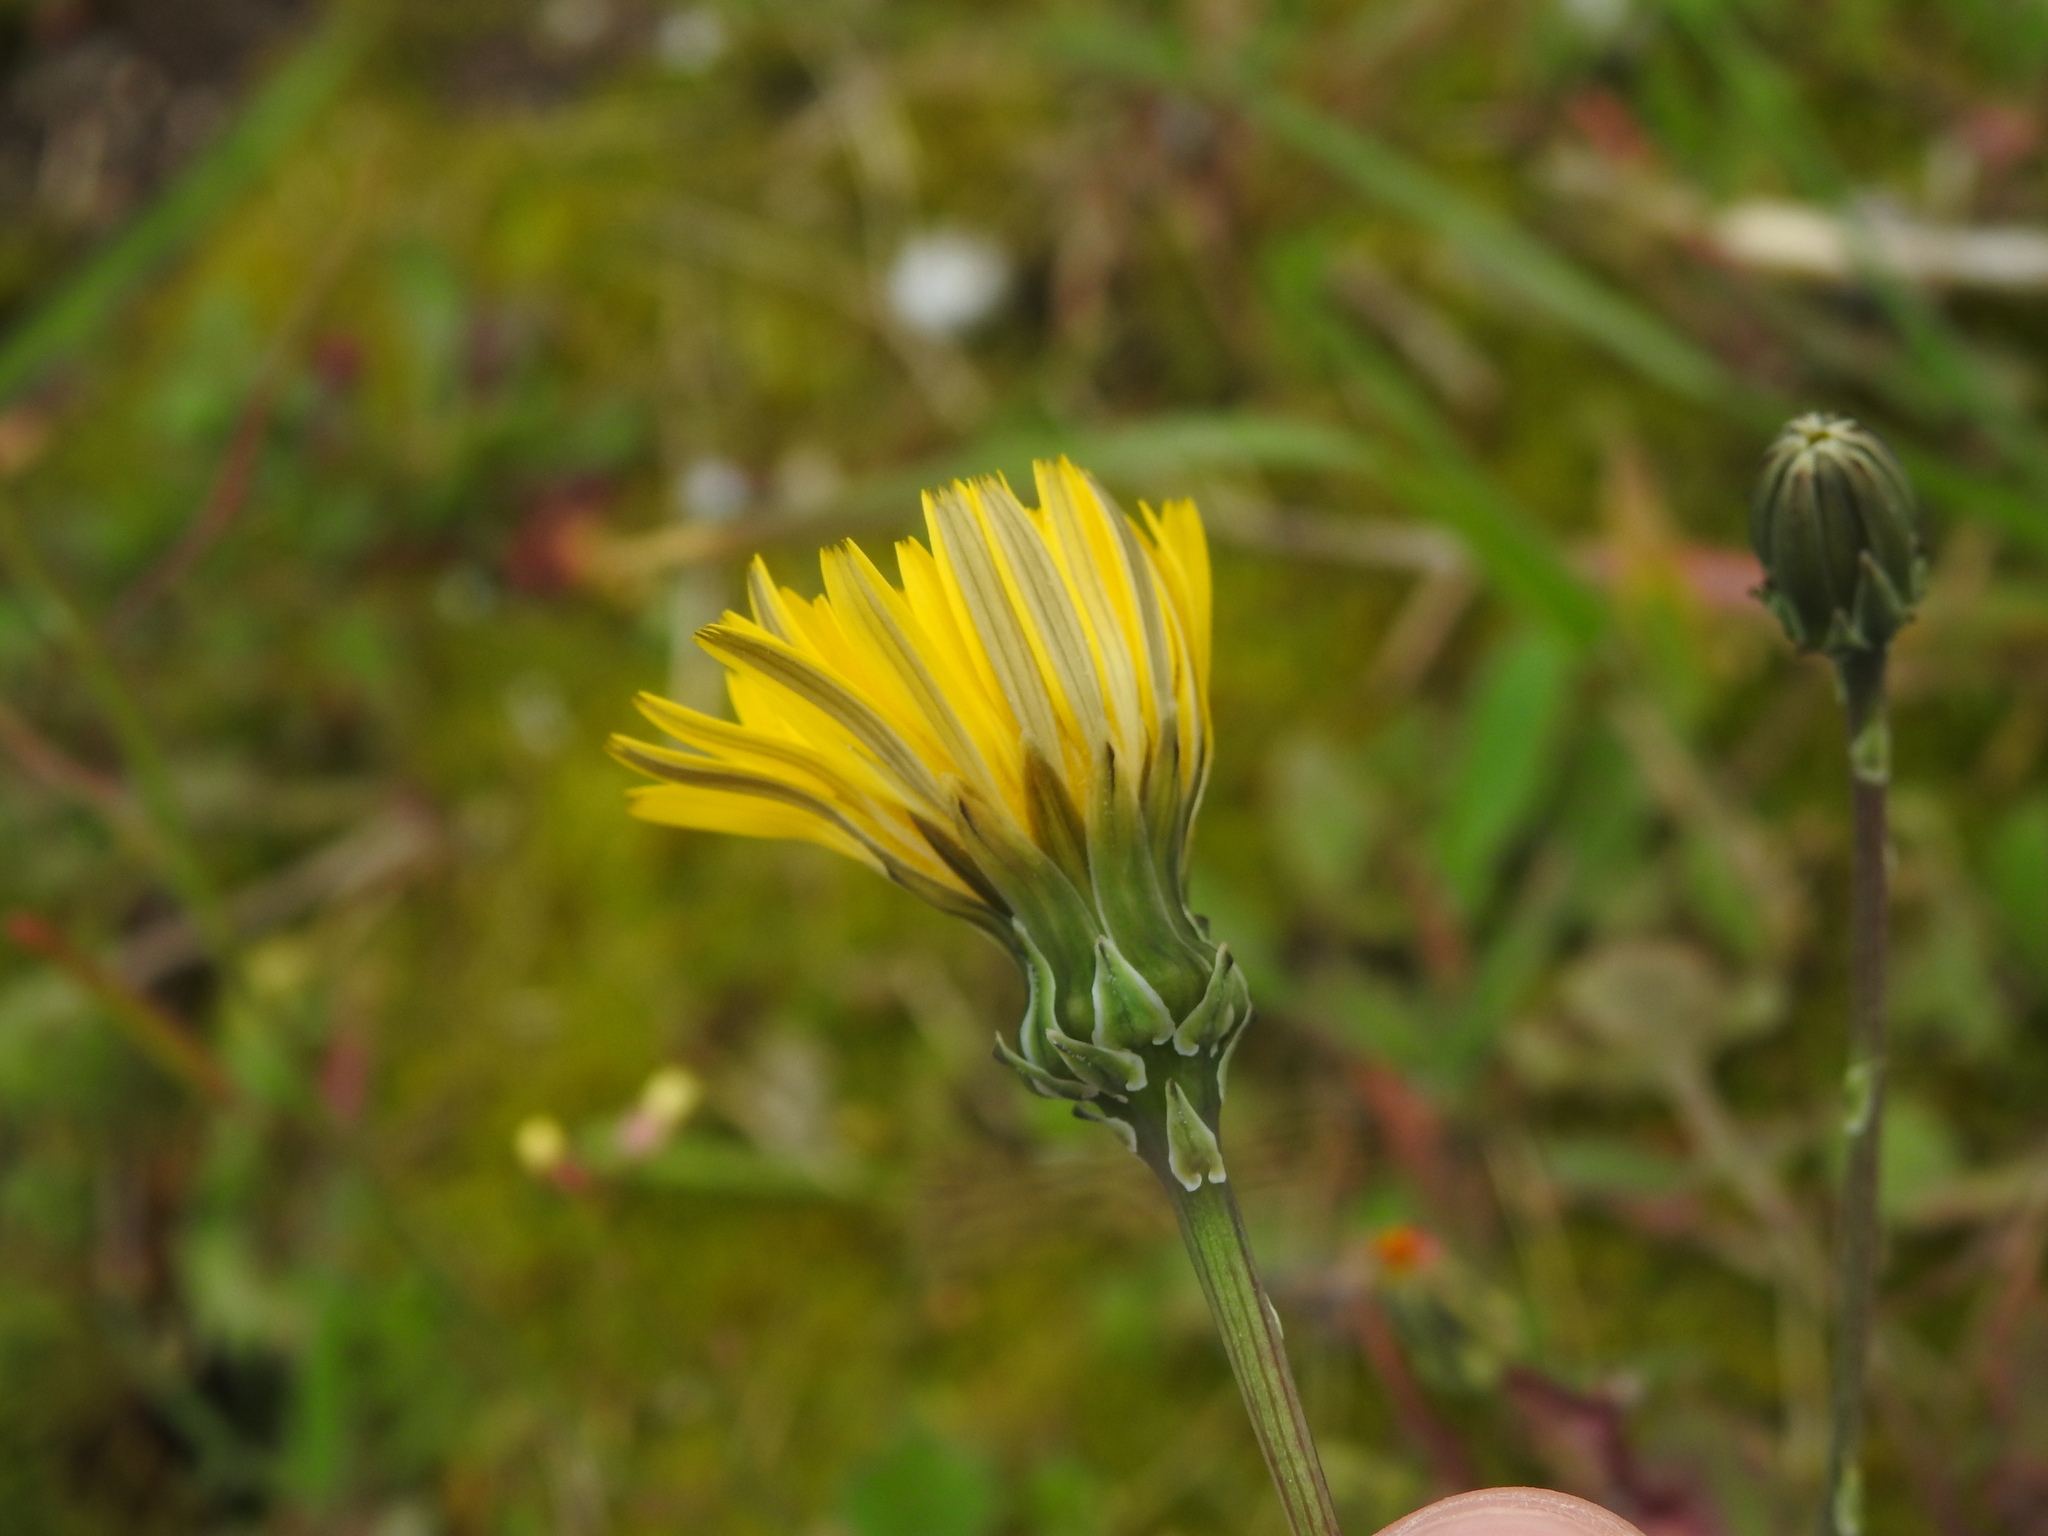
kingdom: Plantae
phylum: Tracheophyta
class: Magnoliopsida
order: Asterales
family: Asteraceae
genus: Reichardia
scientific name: Reichardia picroides
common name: Common brighteyes
